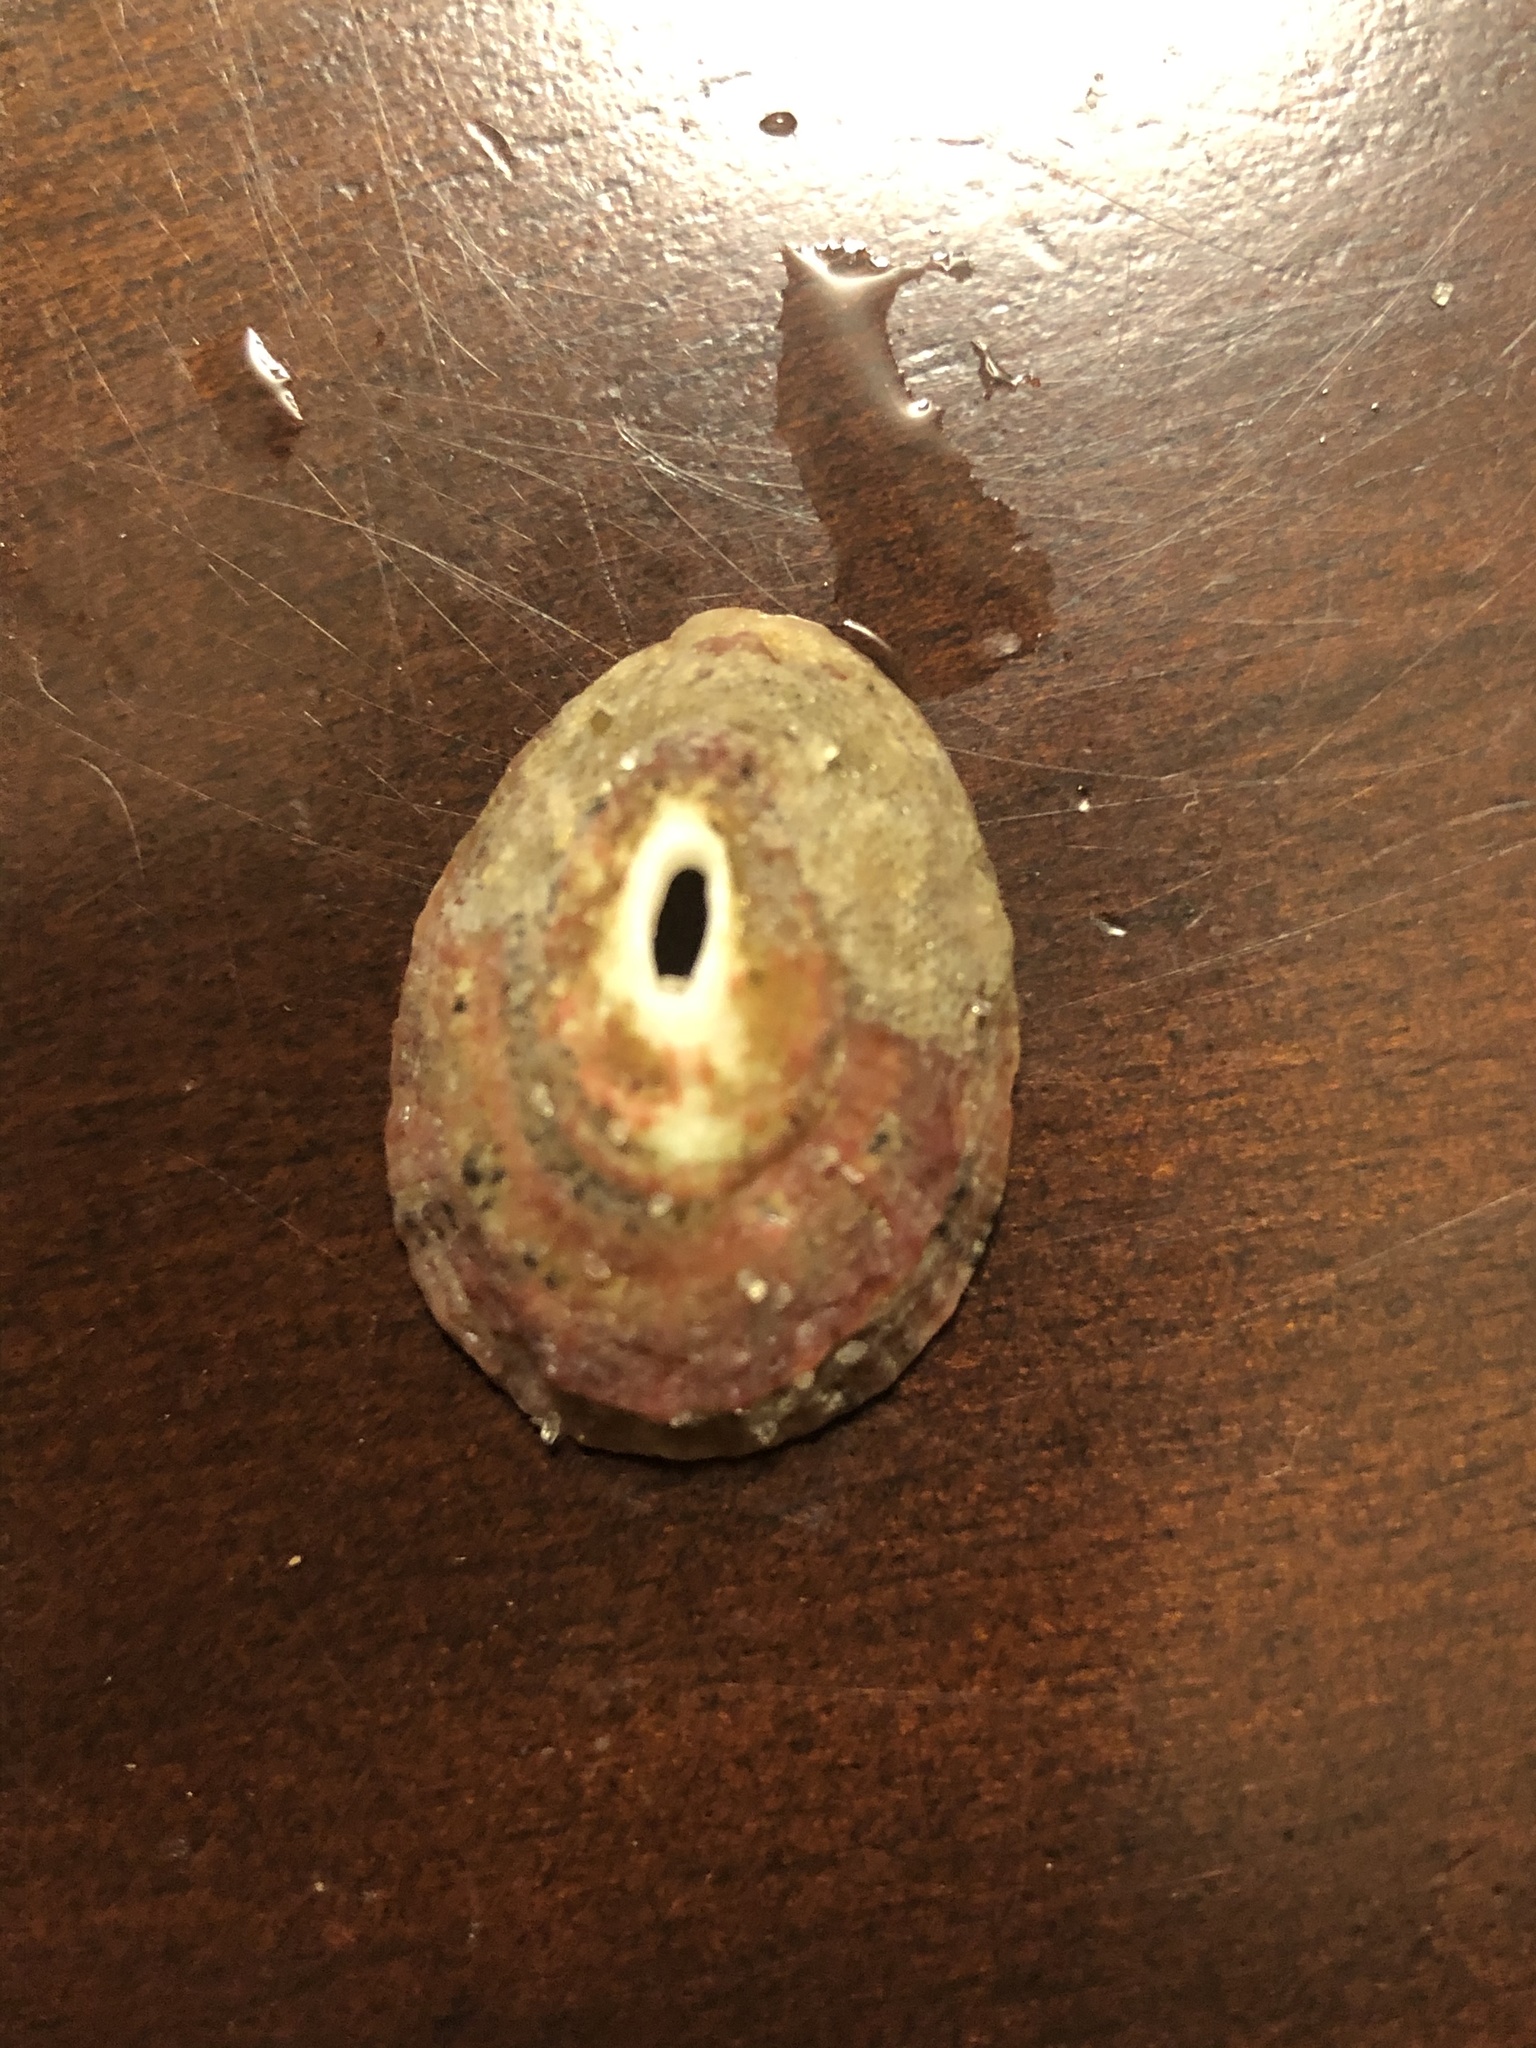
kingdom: Animalia
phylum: Mollusca
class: Gastropoda
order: Lepetellida
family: Fissurellidae
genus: Fissurella
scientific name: Fissurella volcano
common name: Volcano keyhole limpet
